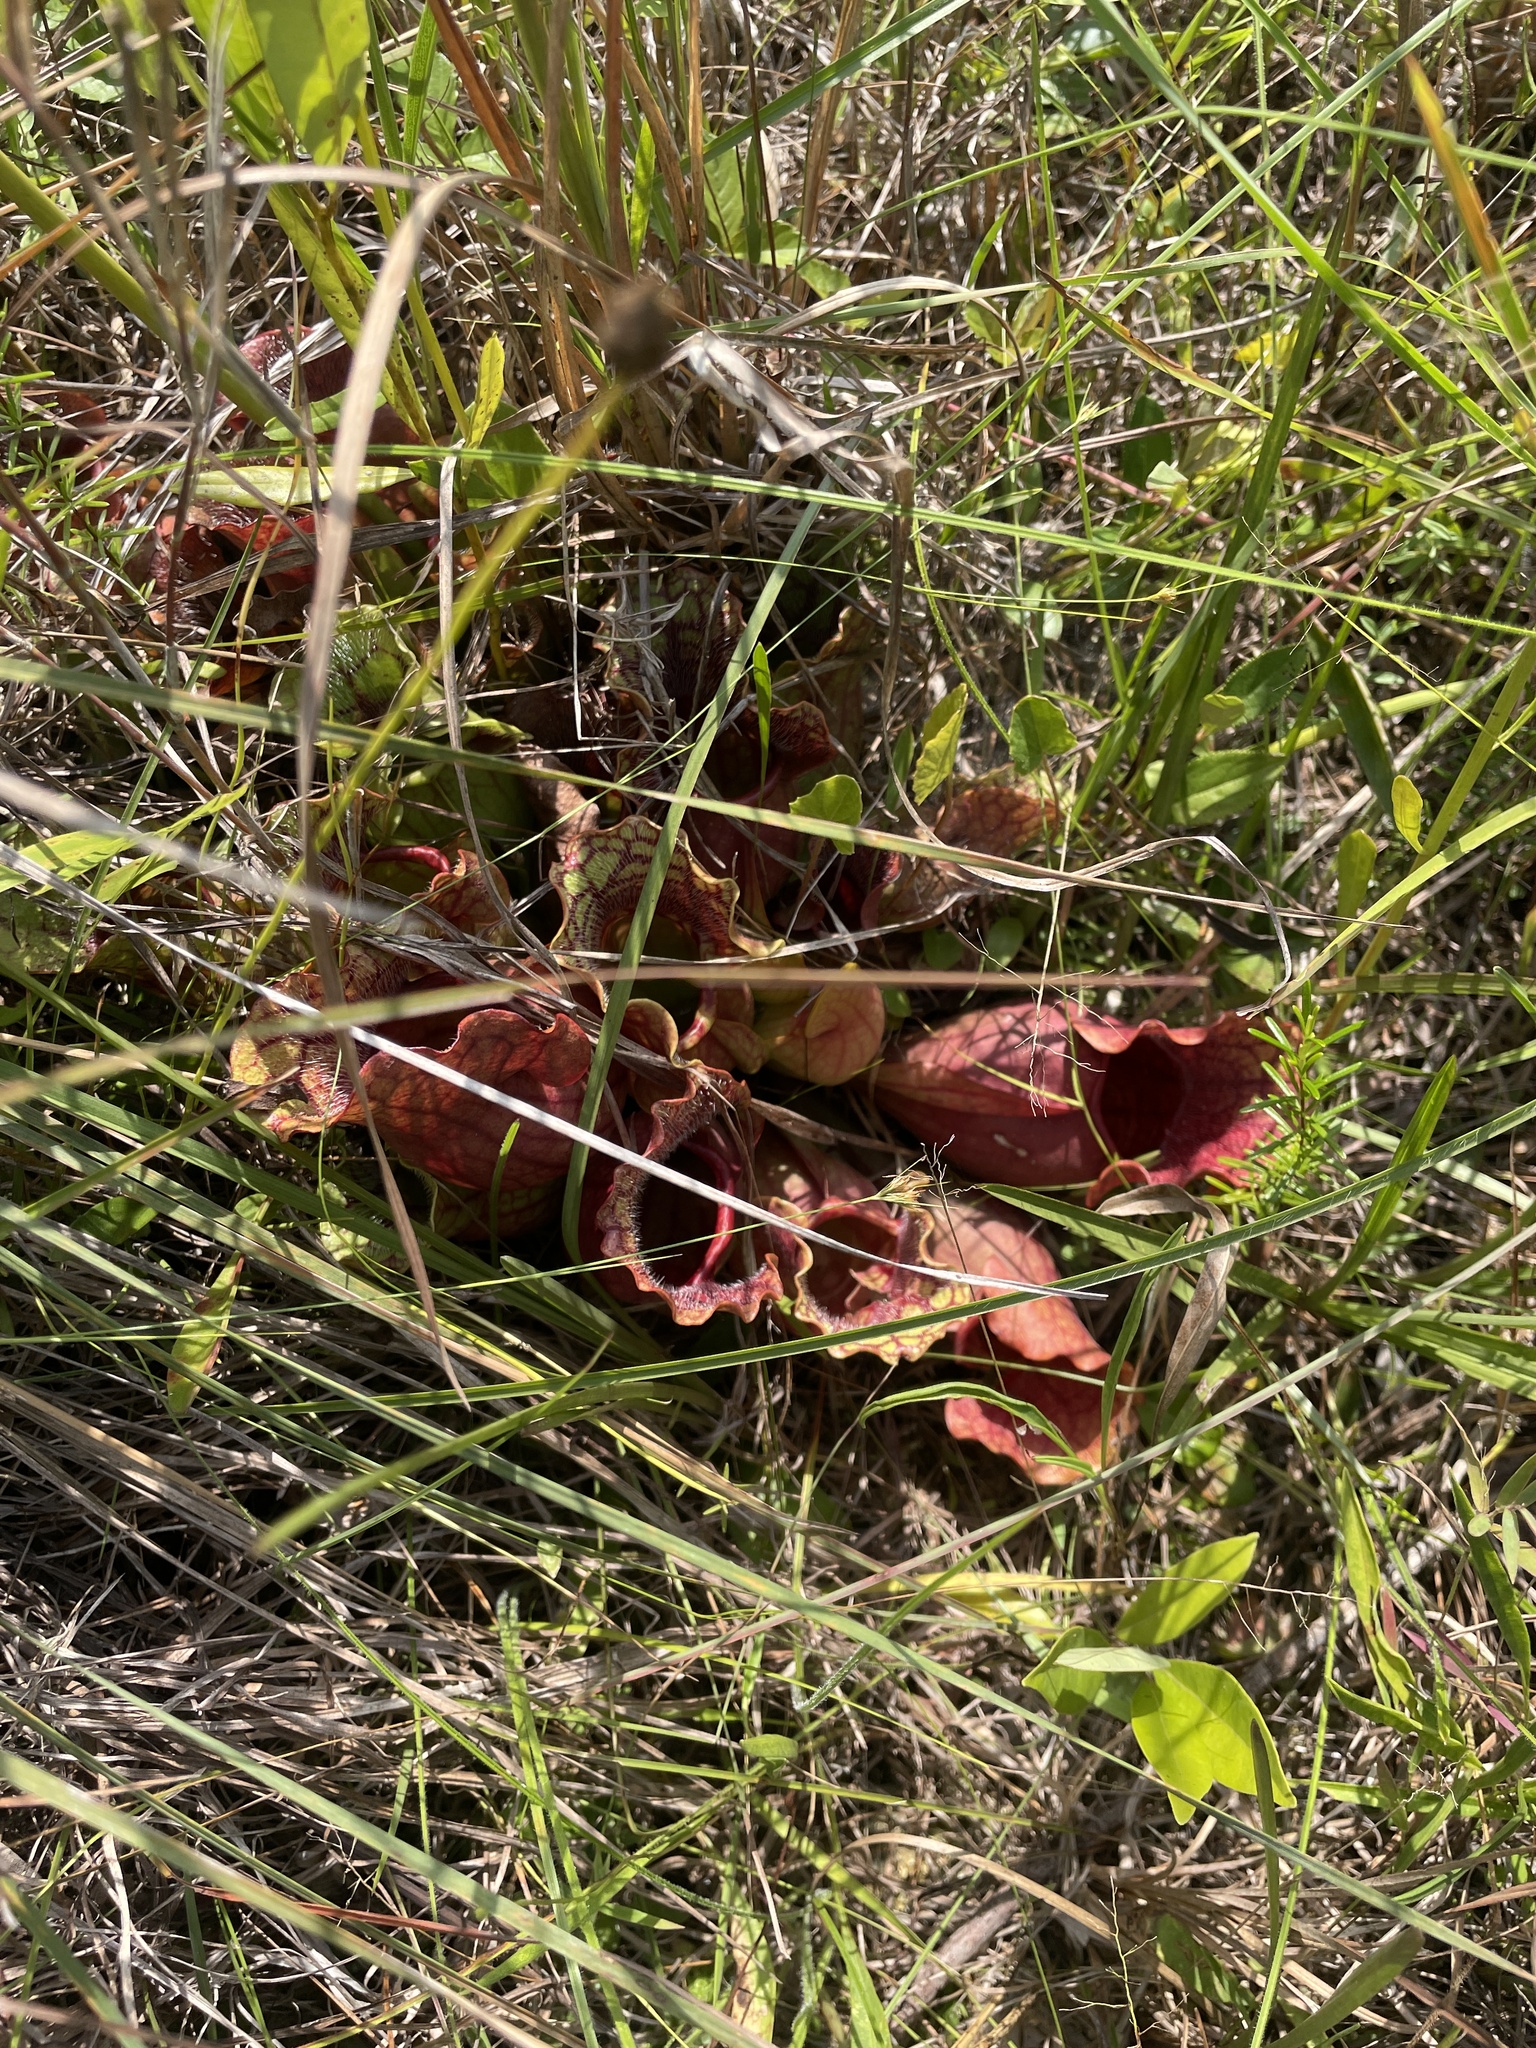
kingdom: Plantae
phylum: Tracheophyta
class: Magnoliopsida
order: Ericales
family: Sarraceniaceae
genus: Sarracenia
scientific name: Sarracenia purpurea
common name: Pitcherplant
